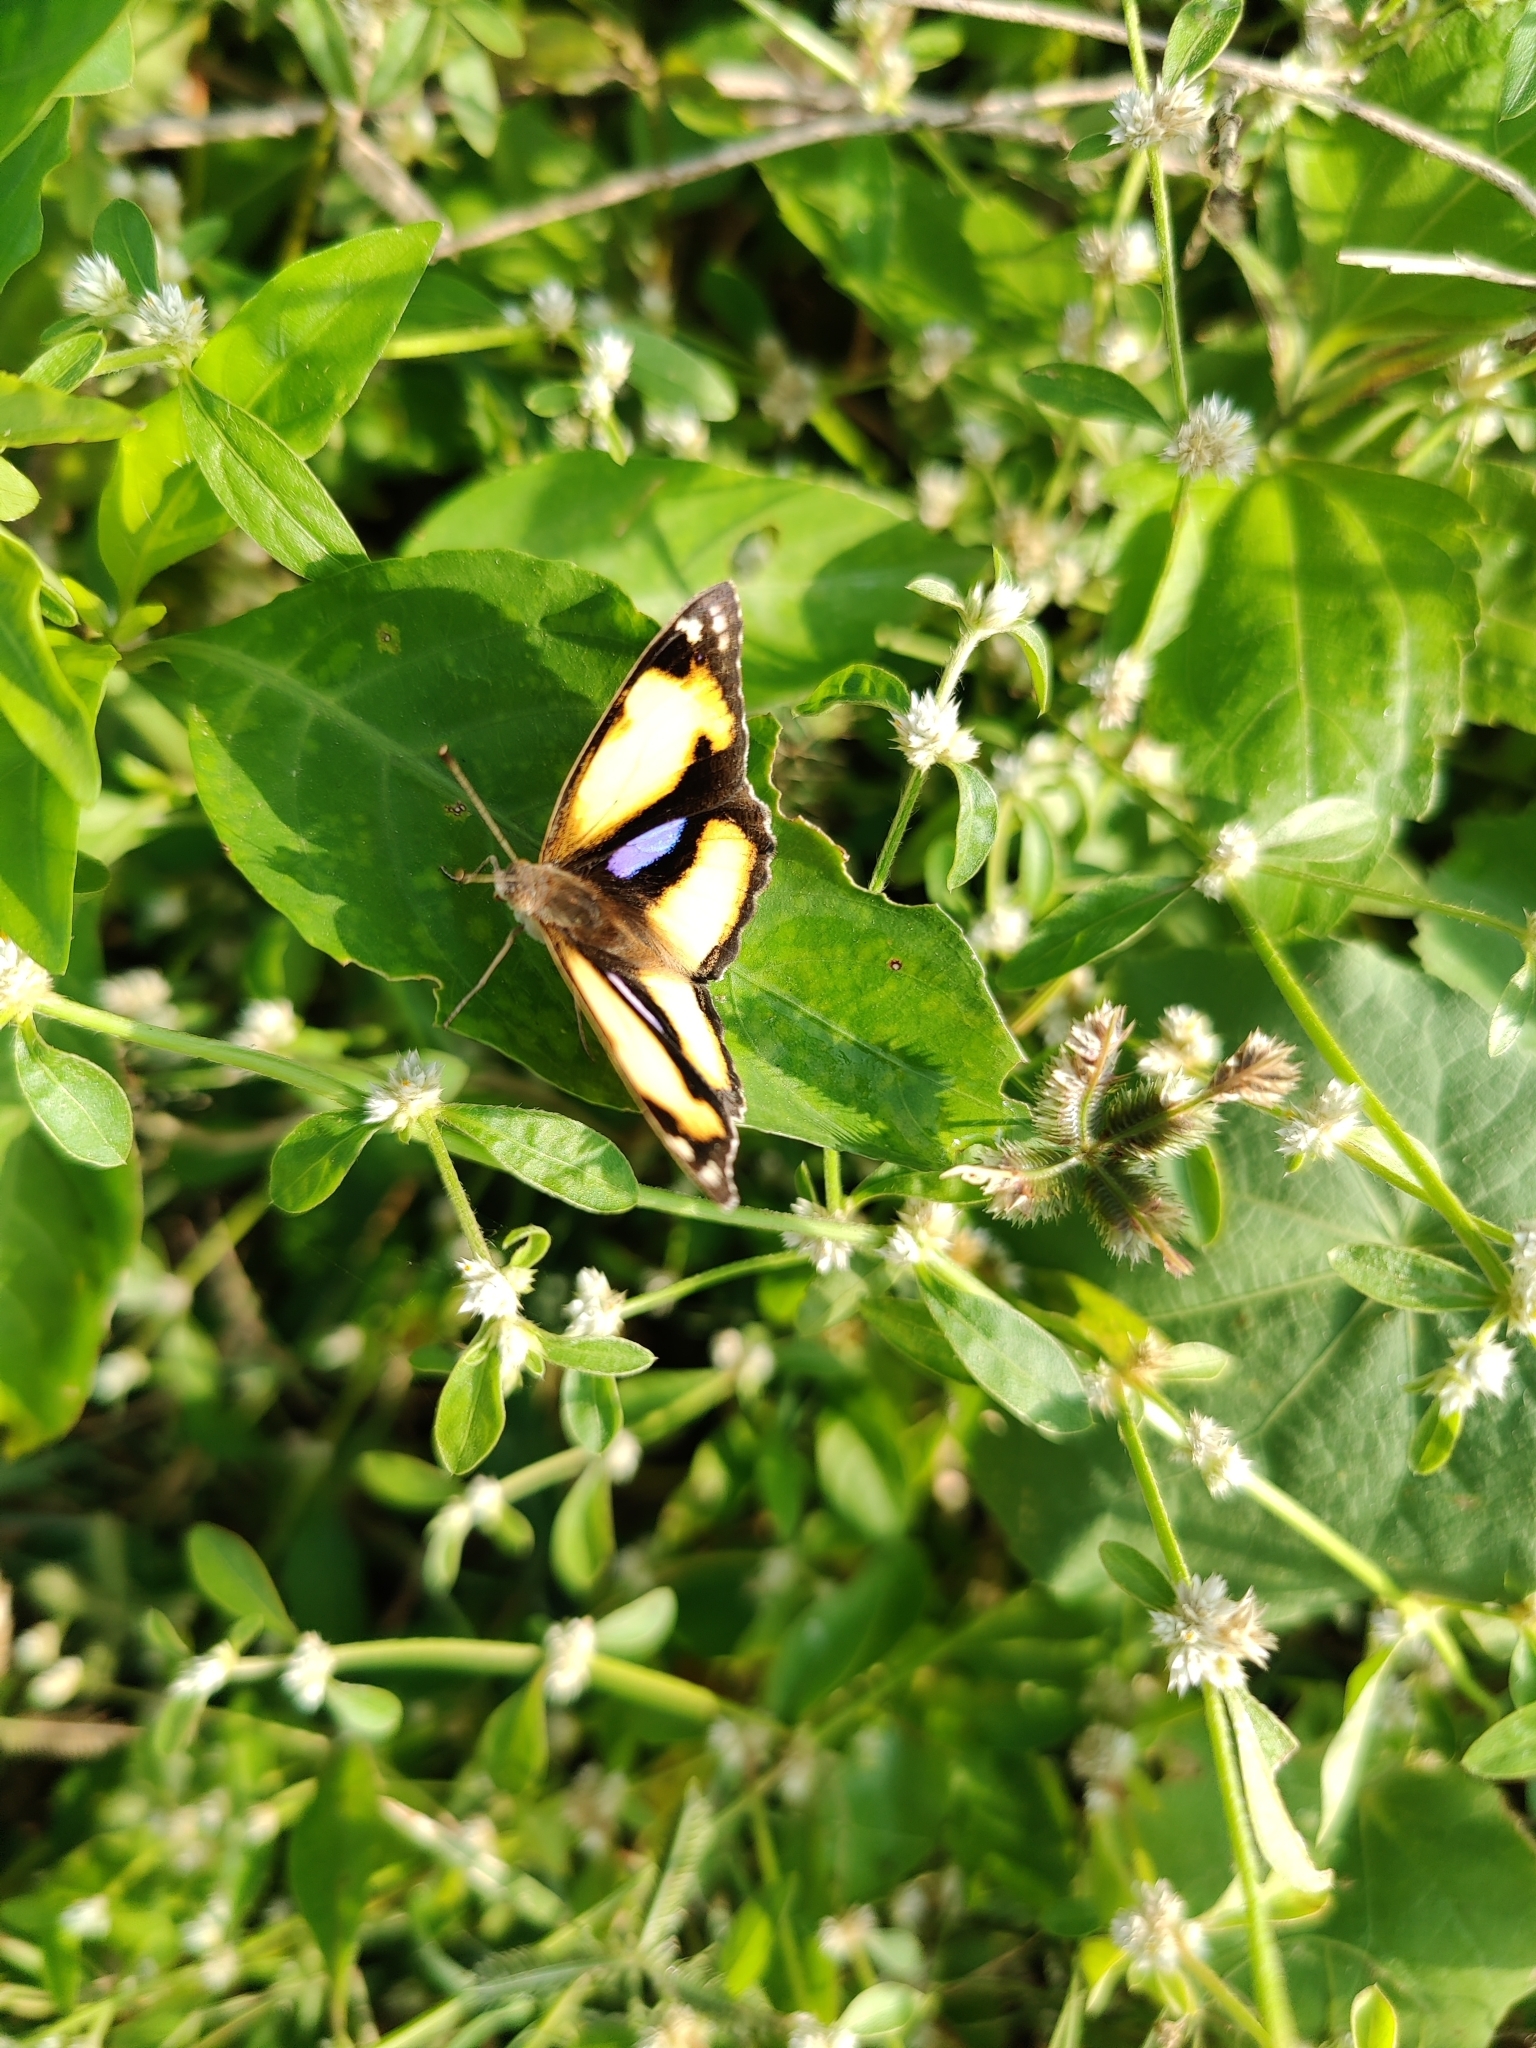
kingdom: Animalia
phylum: Arthropoda
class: Insecta
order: Lepidoptera
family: Nymphalidae
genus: Junonia
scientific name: Junonia hierta
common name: Yellow pansy
